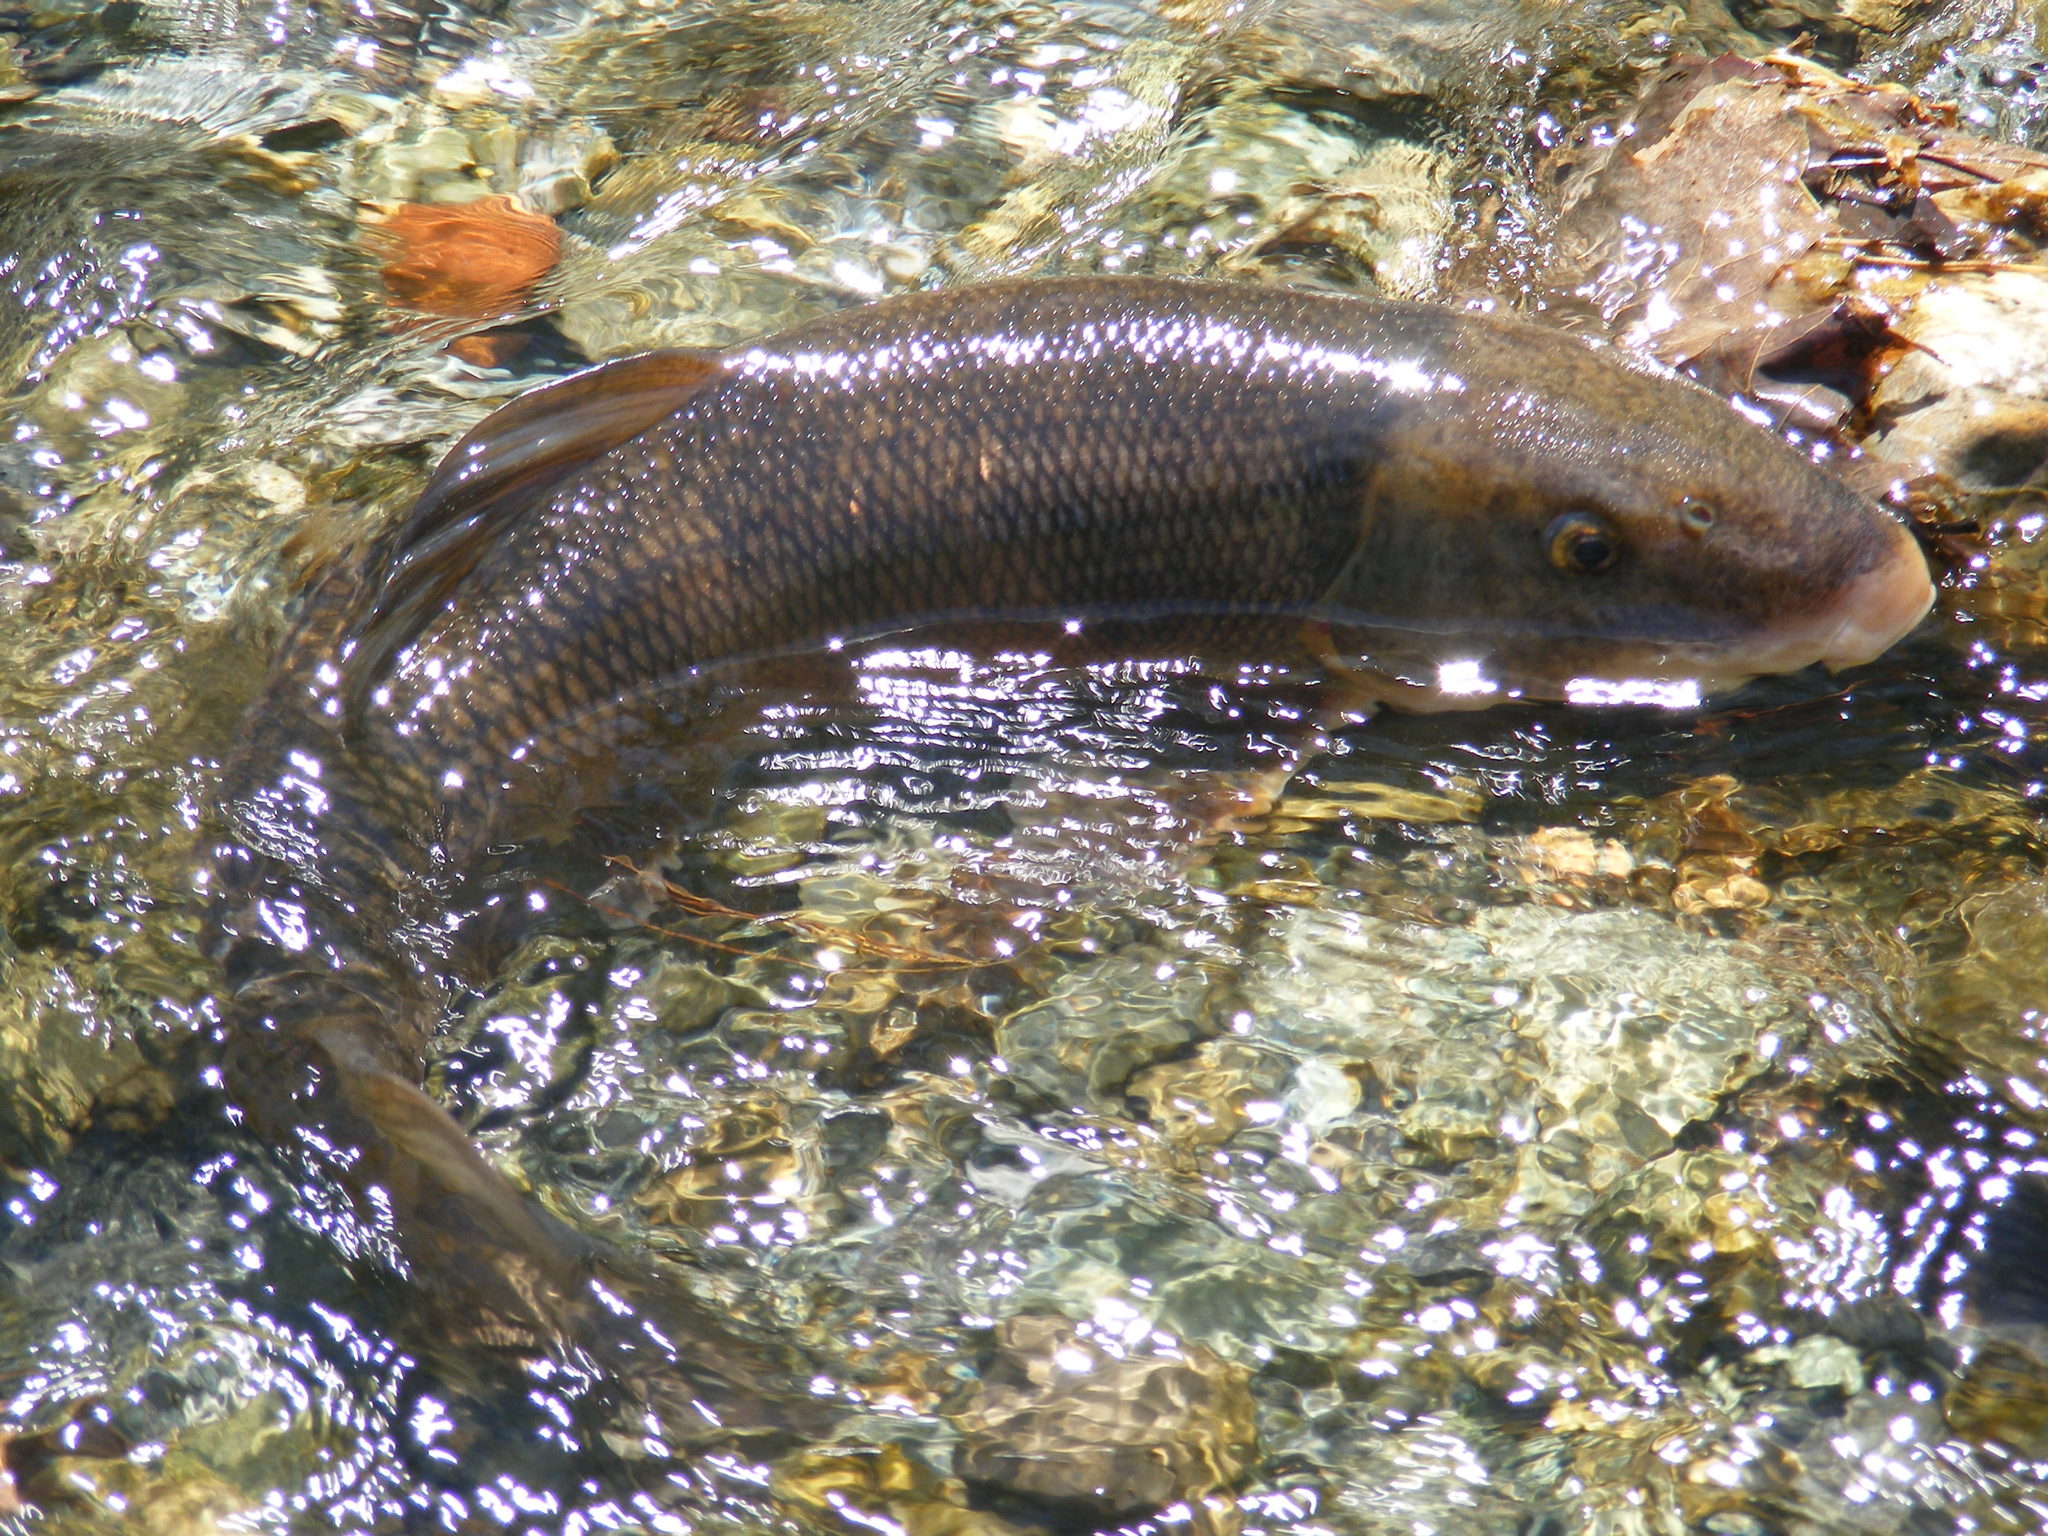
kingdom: Animalia
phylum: Chordata
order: Cypriniformes
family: Catostomidae
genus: Catostomus
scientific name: Catostomus commersonii
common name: White sucker
